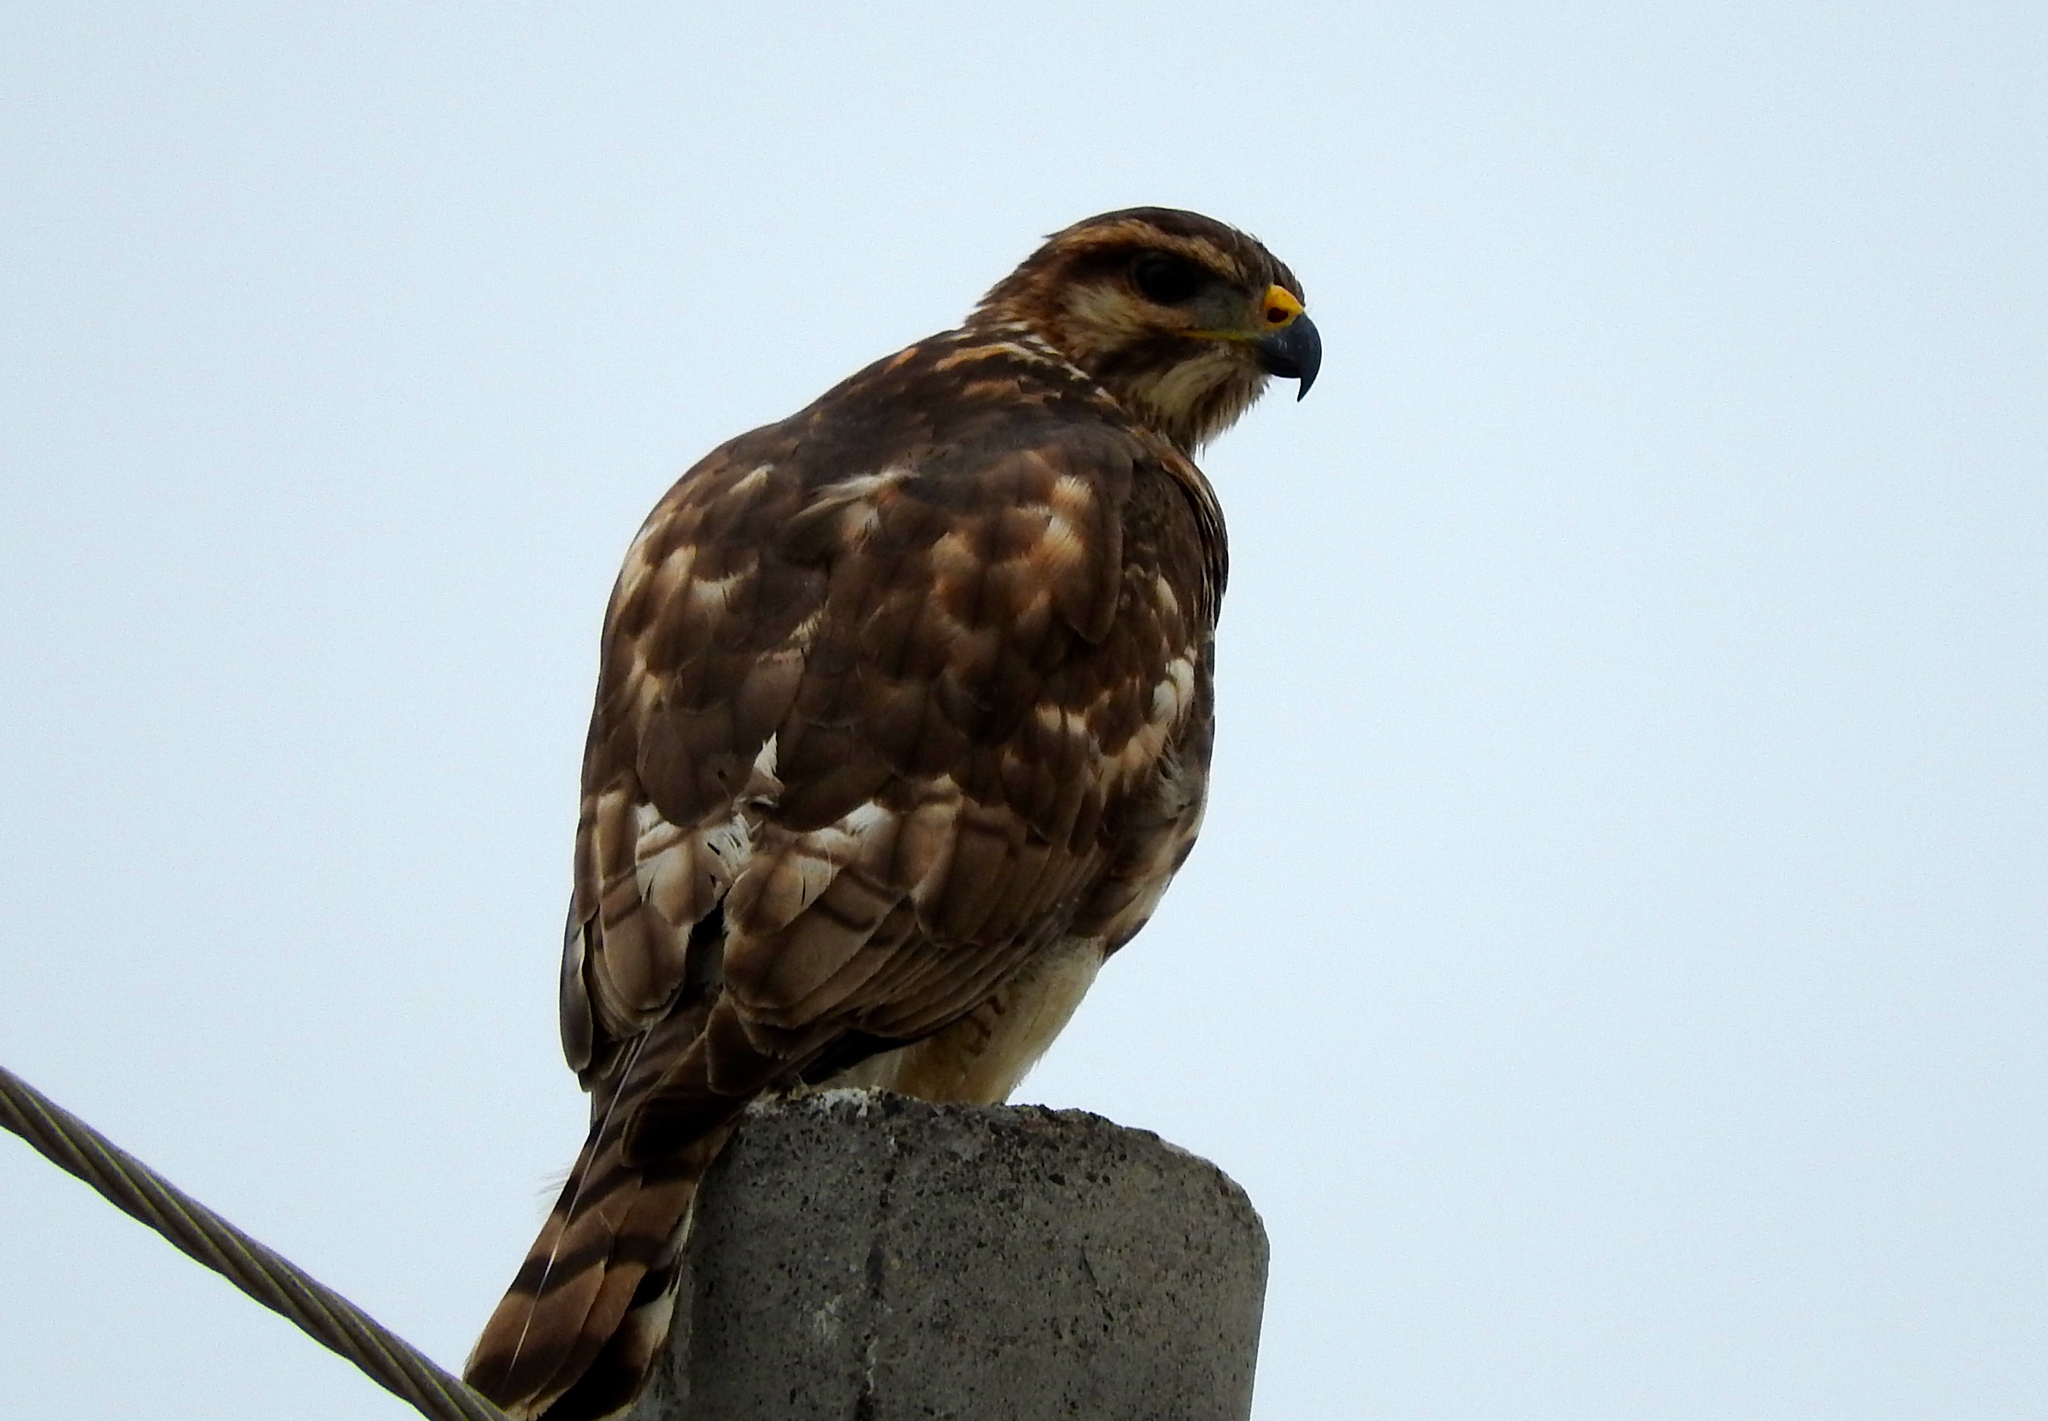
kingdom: Animalia
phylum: Chordata
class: Aves
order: Accipitriformes
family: Accipitridae
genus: Buteo
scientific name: Buteo nitidus
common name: Grey-lined hawk
